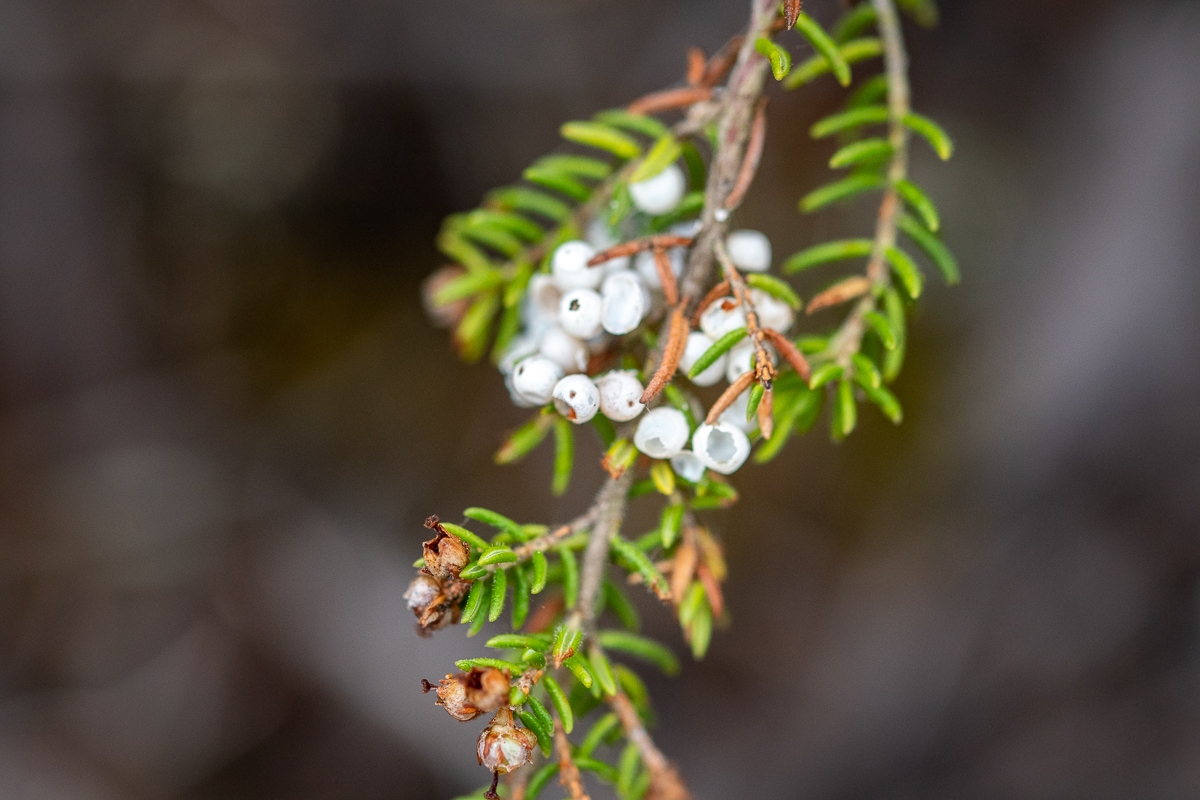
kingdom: Animalia
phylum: Arthropoda
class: Insecta
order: Lepidoptera
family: Lasiocampidae
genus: Eutricha
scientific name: Eutricha capensis
